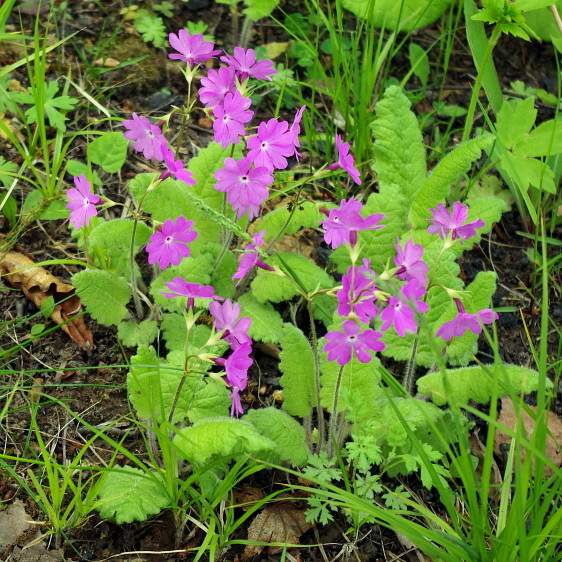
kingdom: Plantae
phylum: Tracheophyta
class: Magnoliopsida
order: Ericales
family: Primulaceae
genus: Primula
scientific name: Primula sieboldii
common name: Japanese primrose
